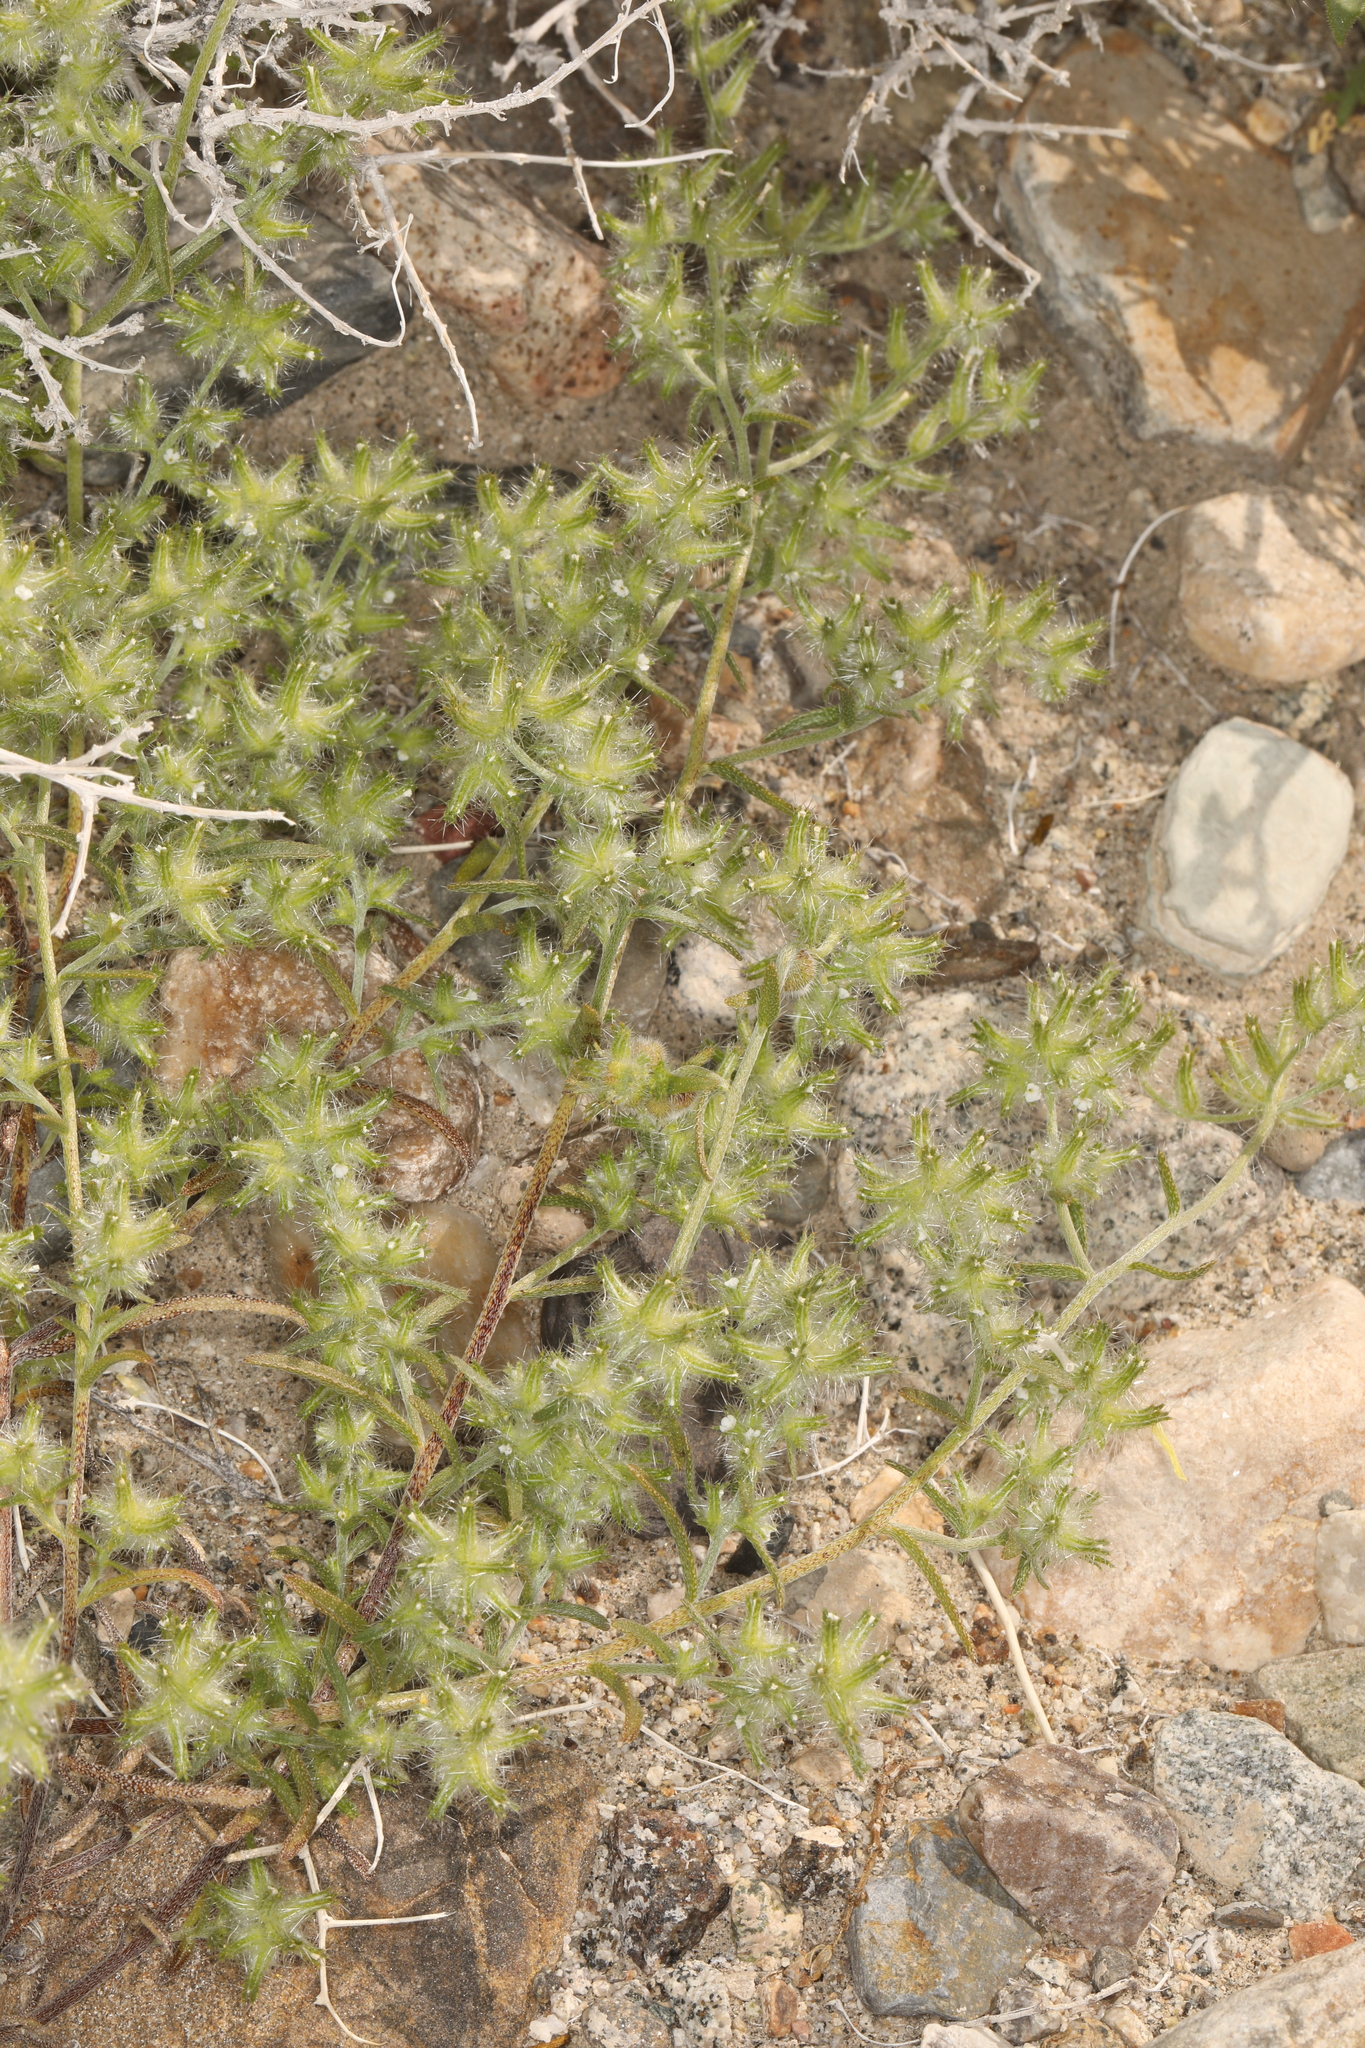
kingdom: Plantae
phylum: Tracheophyta
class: Magnoliopsida
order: Boraginales
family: Boraginaceae
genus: Cryptantha
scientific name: Cryptantha nevadensis
